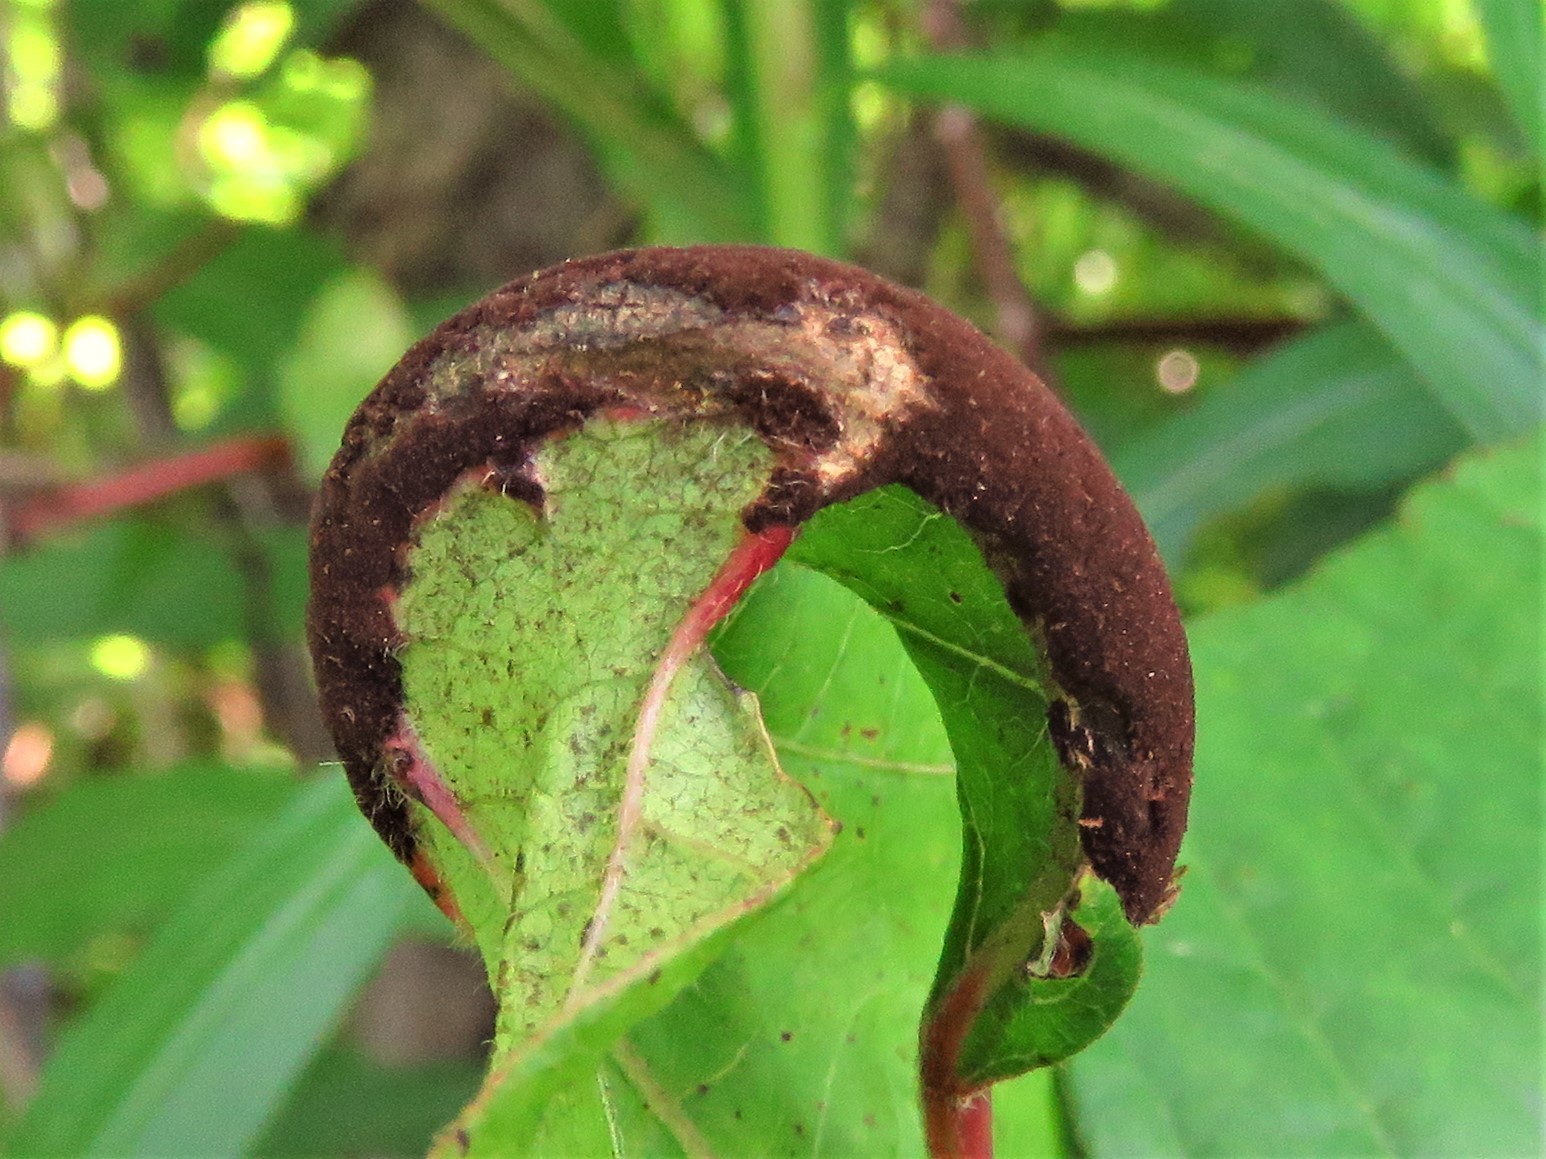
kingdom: Fungi
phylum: Basidiomycota
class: Pucciniomycetes
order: Pucciniales
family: Pileolariaceae
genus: Pileolaria
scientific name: Pileolaria brevipes
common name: Poison ivy rust
